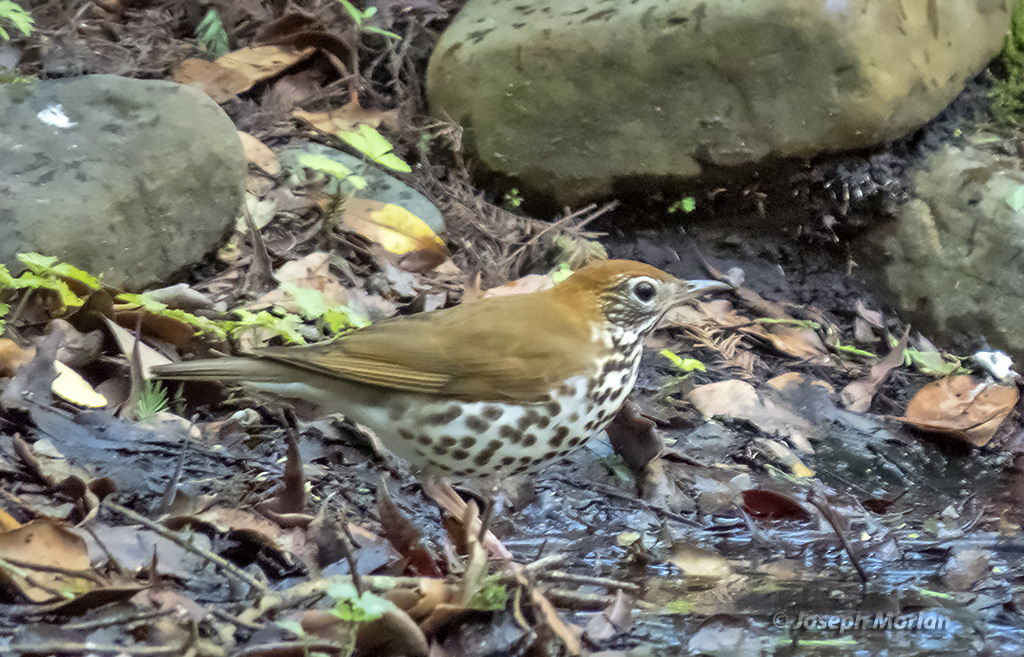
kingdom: Animalia
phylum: Chordata
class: Aves
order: Passeriformes
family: Turdidae
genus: Hylocichla
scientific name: Hylocichla mustelina
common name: Wood thrush
